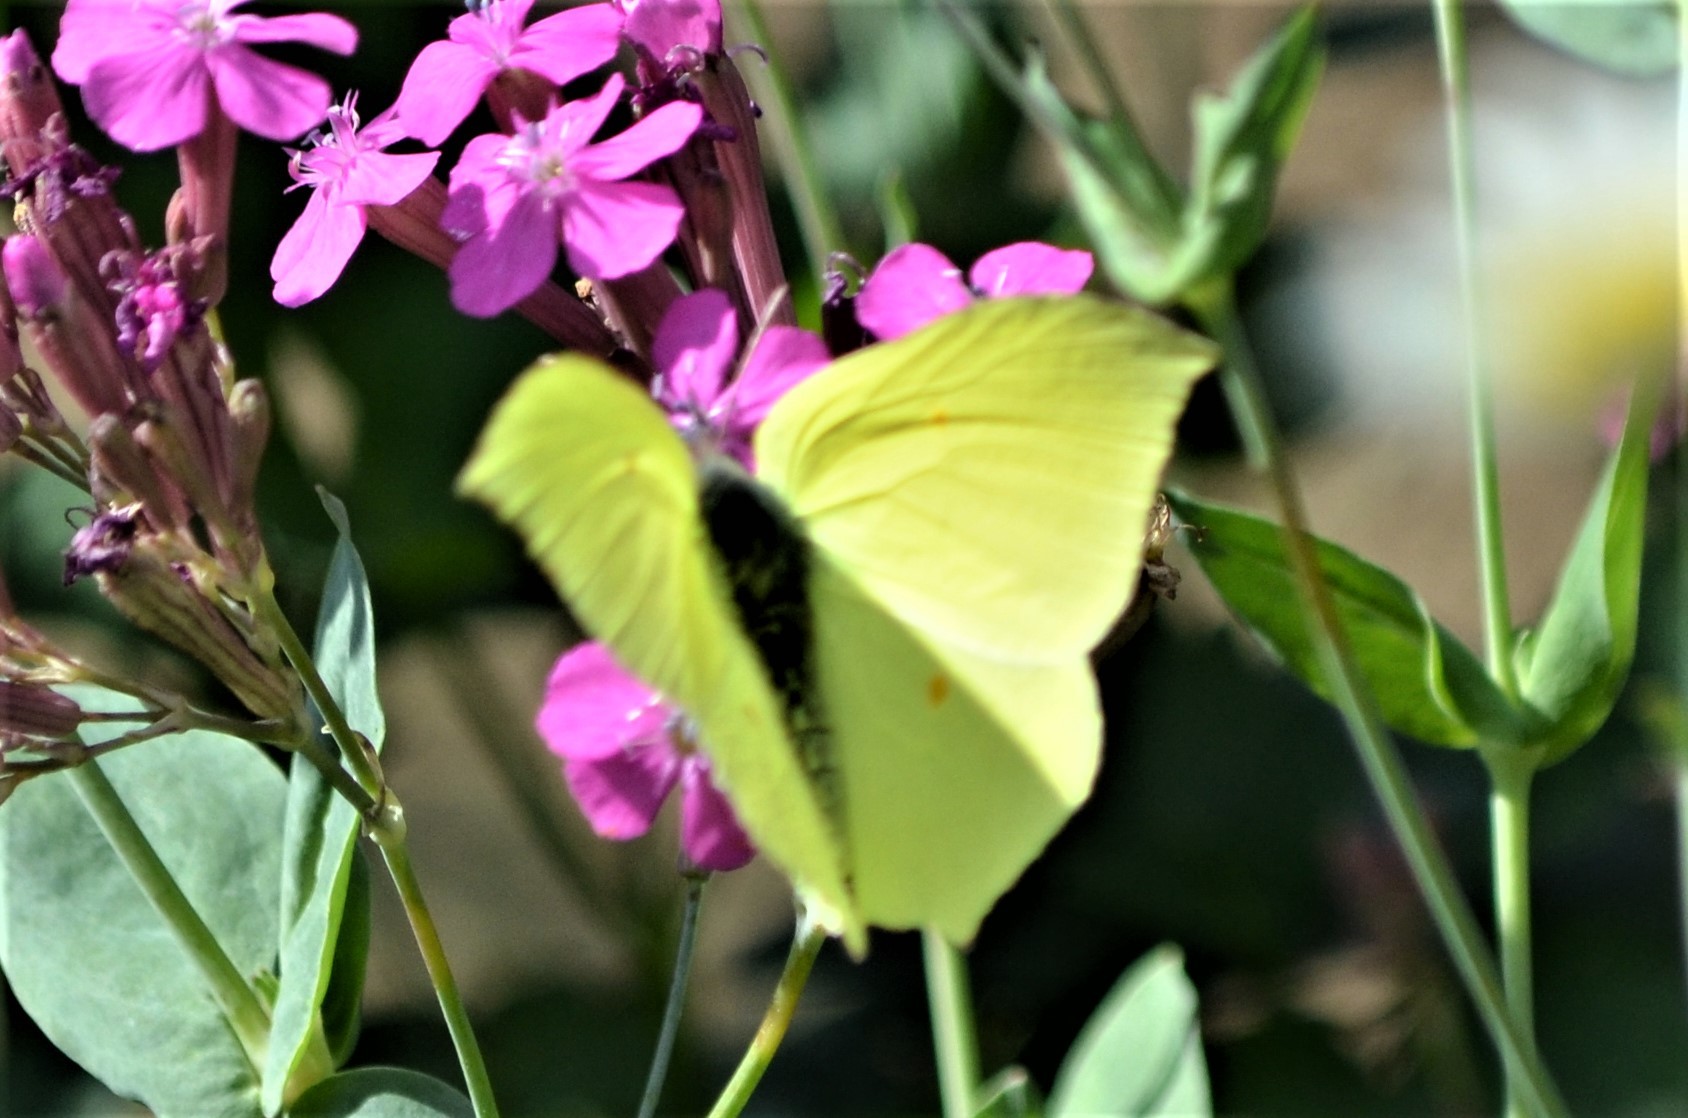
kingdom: Animalia
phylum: Arthropoda
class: Insecta
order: Lepidoptera
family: Pieridae
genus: Gonepteryx
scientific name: Gonepteryx rhamni
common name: Brimstone
